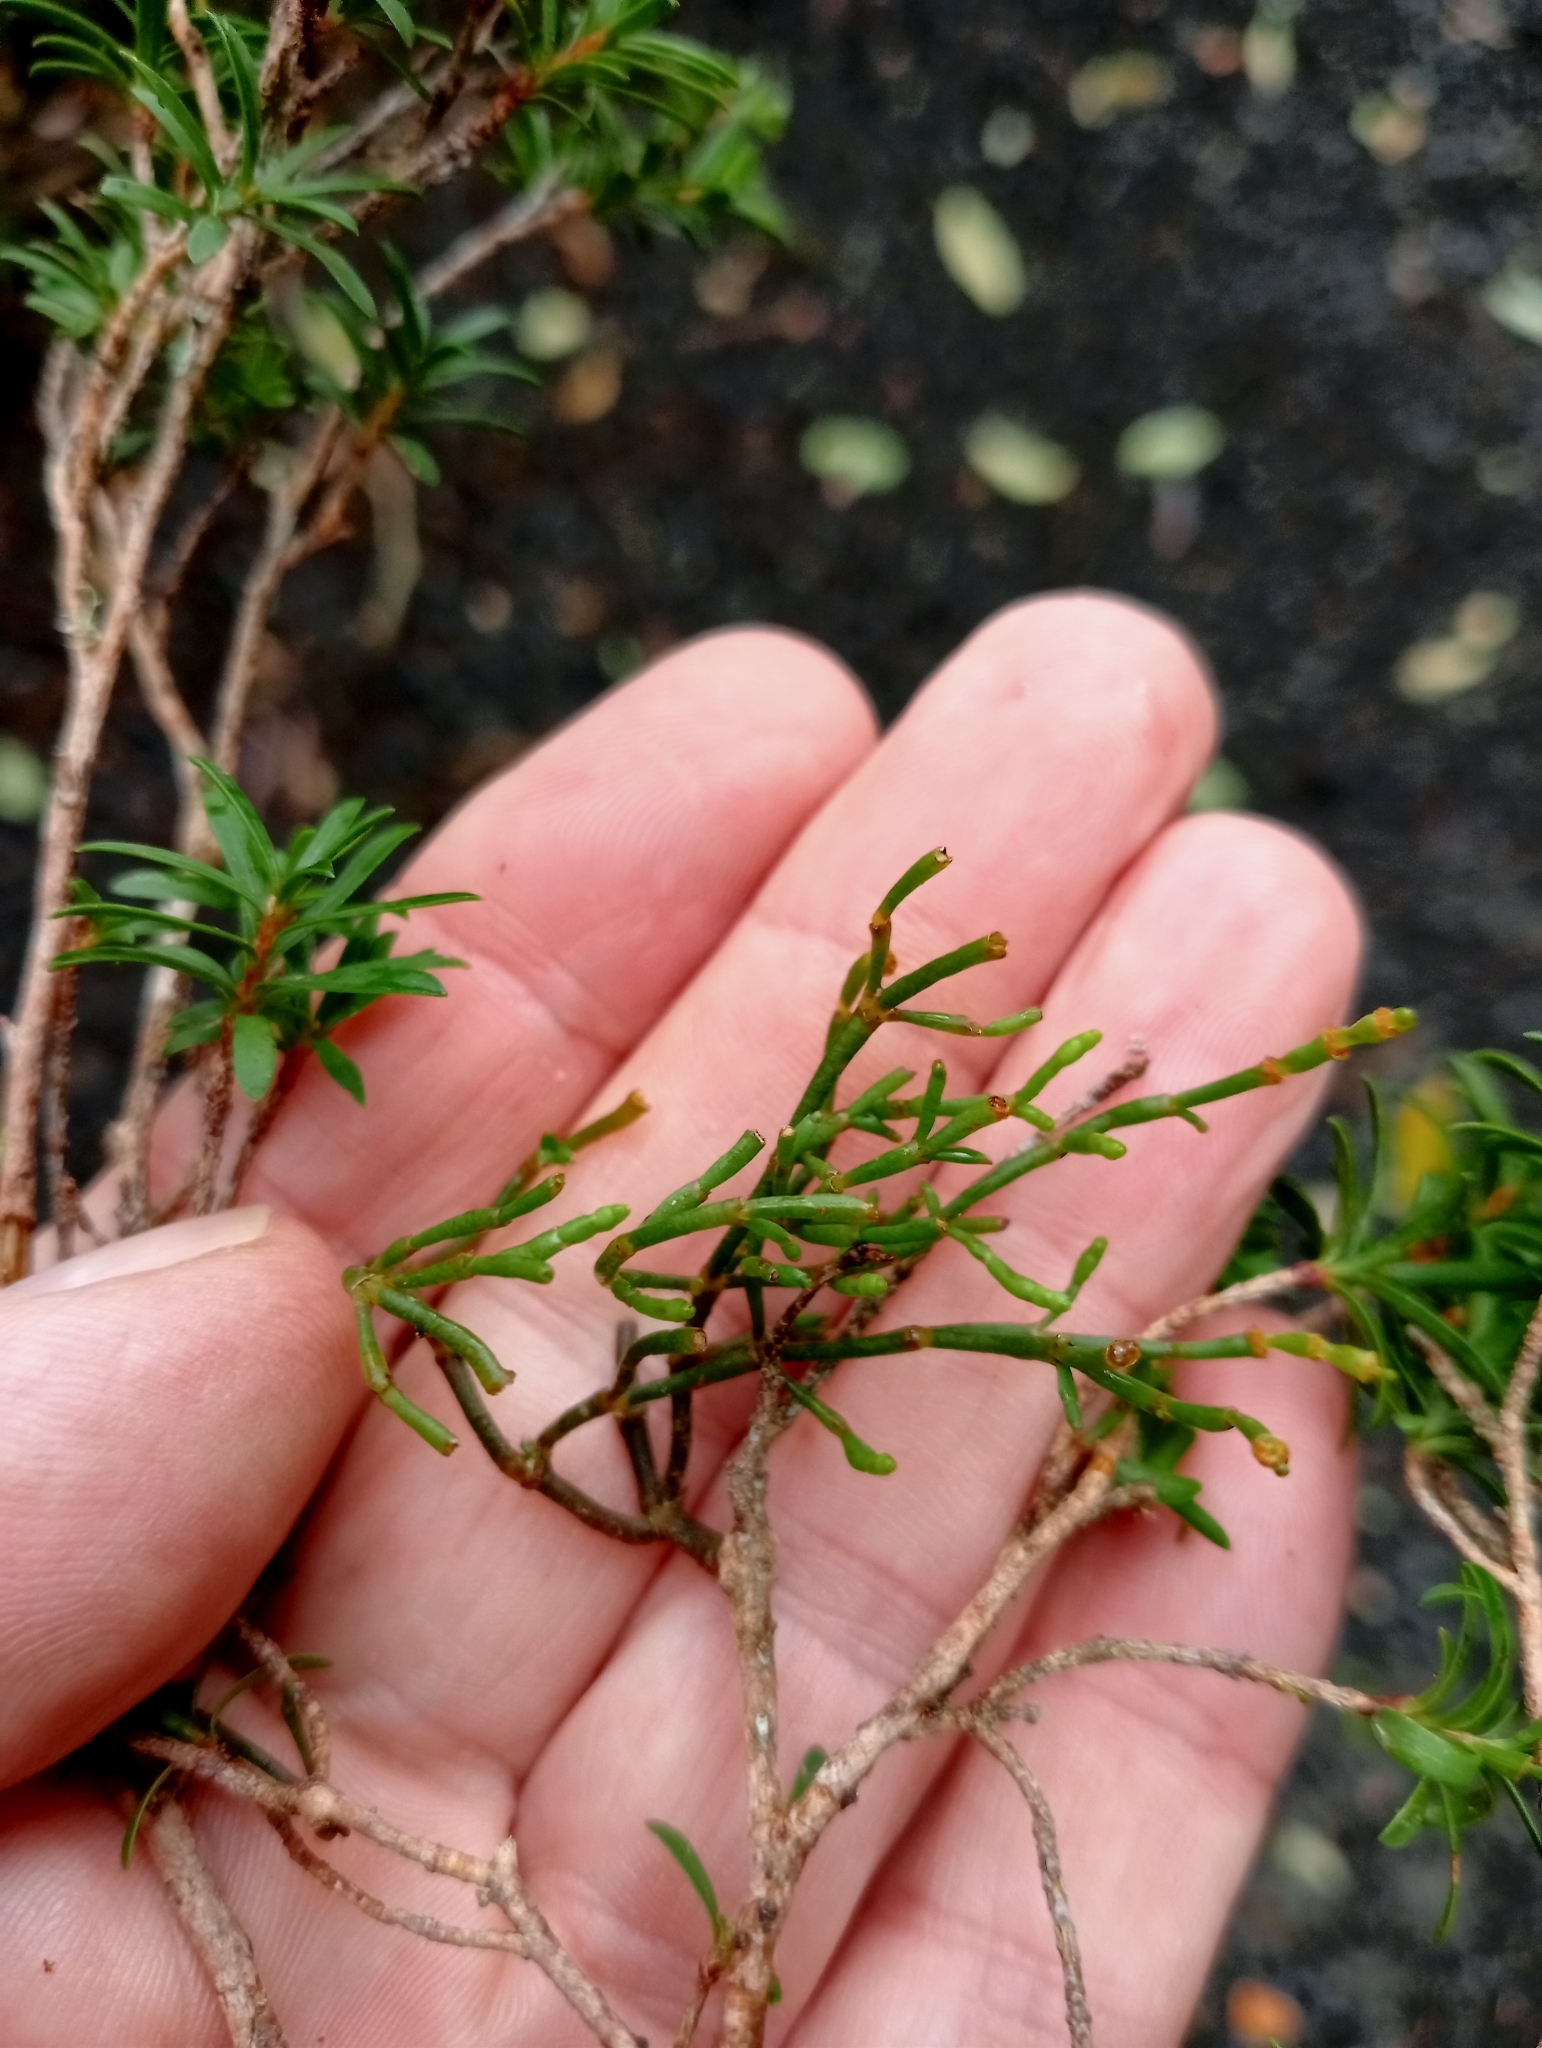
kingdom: Plantae
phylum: Tracheophyta
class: Magnoliopsida
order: Santalales
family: Viscaceae
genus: Korthalsella
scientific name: Korthalsella salicornioides
